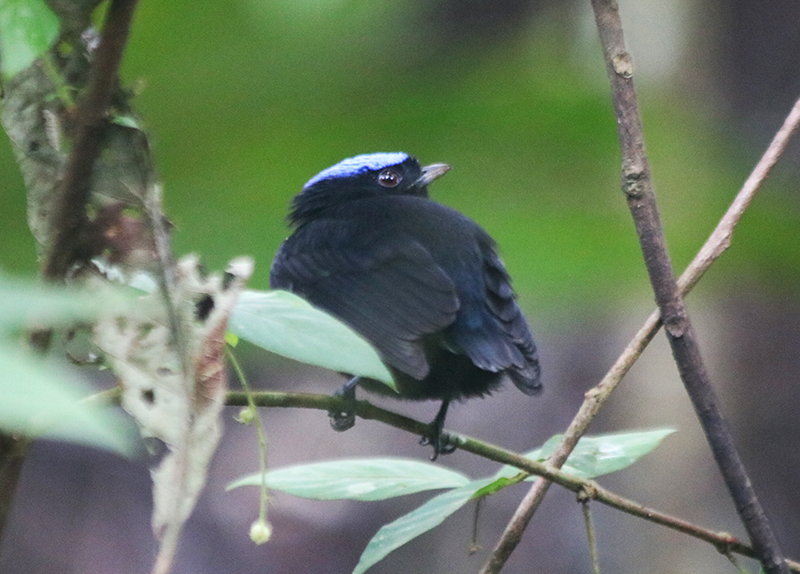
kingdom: Animalia
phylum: Chordata
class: Aves
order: Passeriformes
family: Pipridae
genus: Lepidothrix
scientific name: Lepidothrix coronata
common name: Blue-crowned manakin
